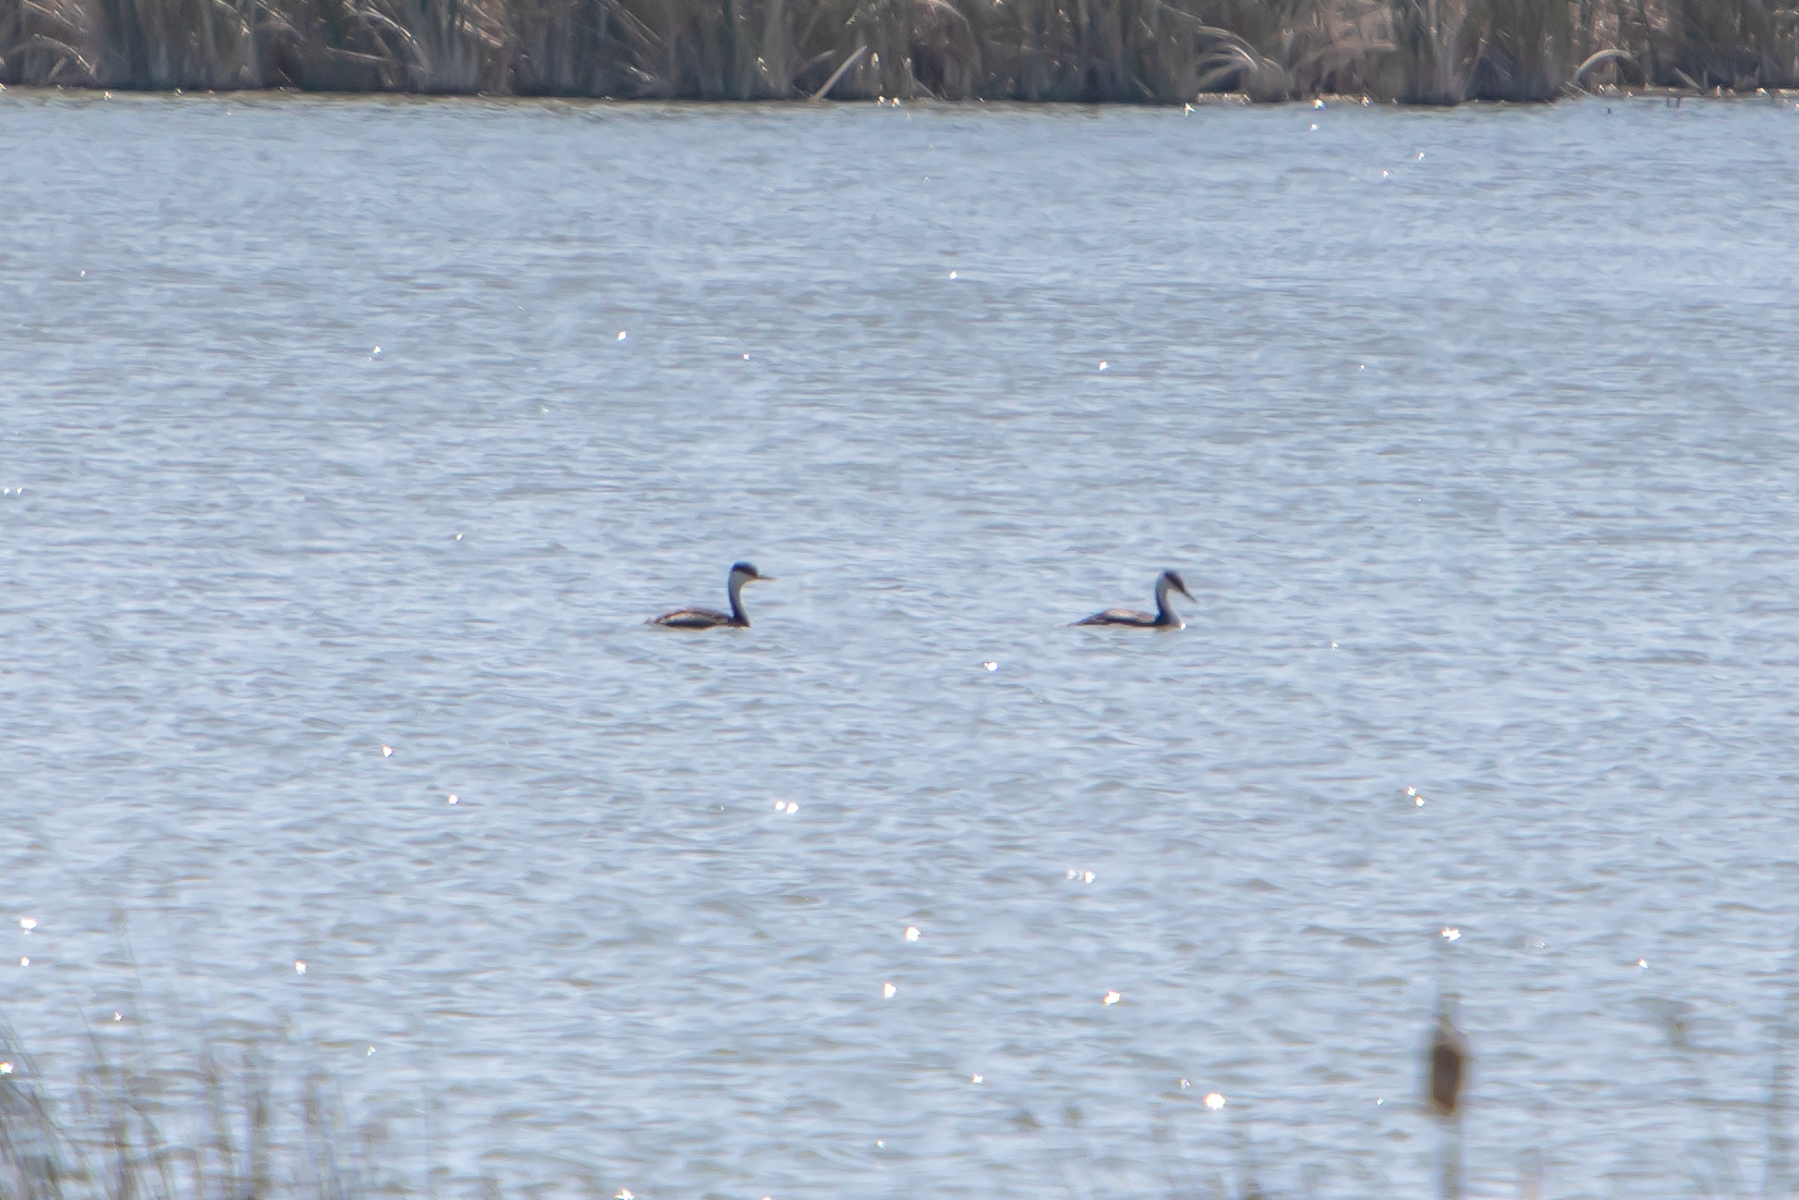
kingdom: Animalia
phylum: Chordata
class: Aves
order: Podicipediformes
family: Podicipedidae
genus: Aechmophorus
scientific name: Aechmophorus occidentalis
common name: Western grebe
